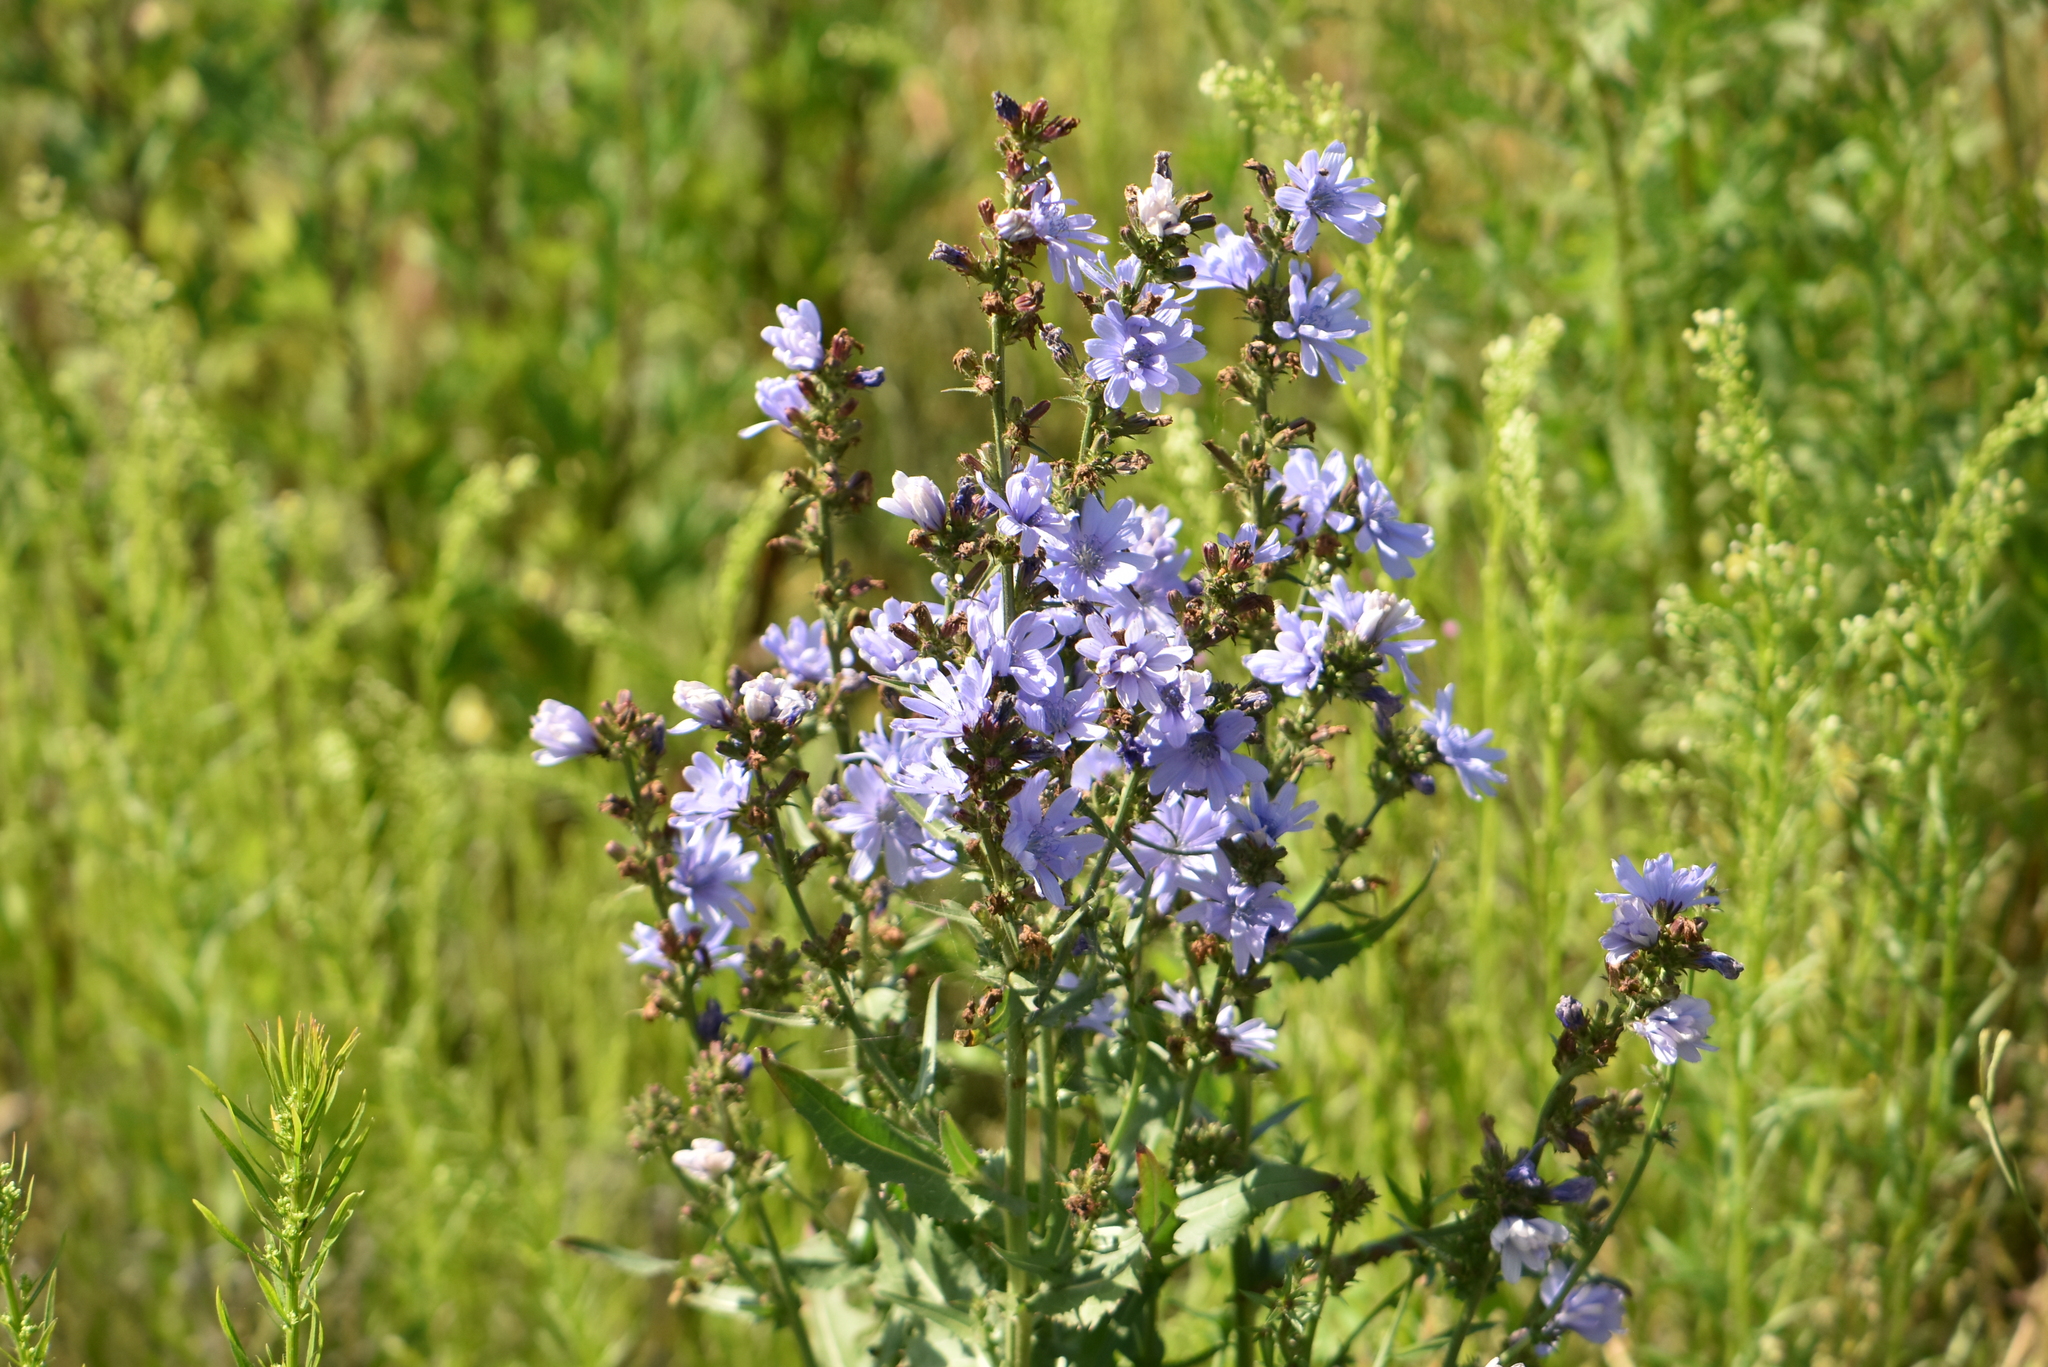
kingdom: Plantae
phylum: Tracheophyta
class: Magnoliopsida
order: Asterales
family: Asteraceae
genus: Cichorium
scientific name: Cichorium intybus
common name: Chicory
